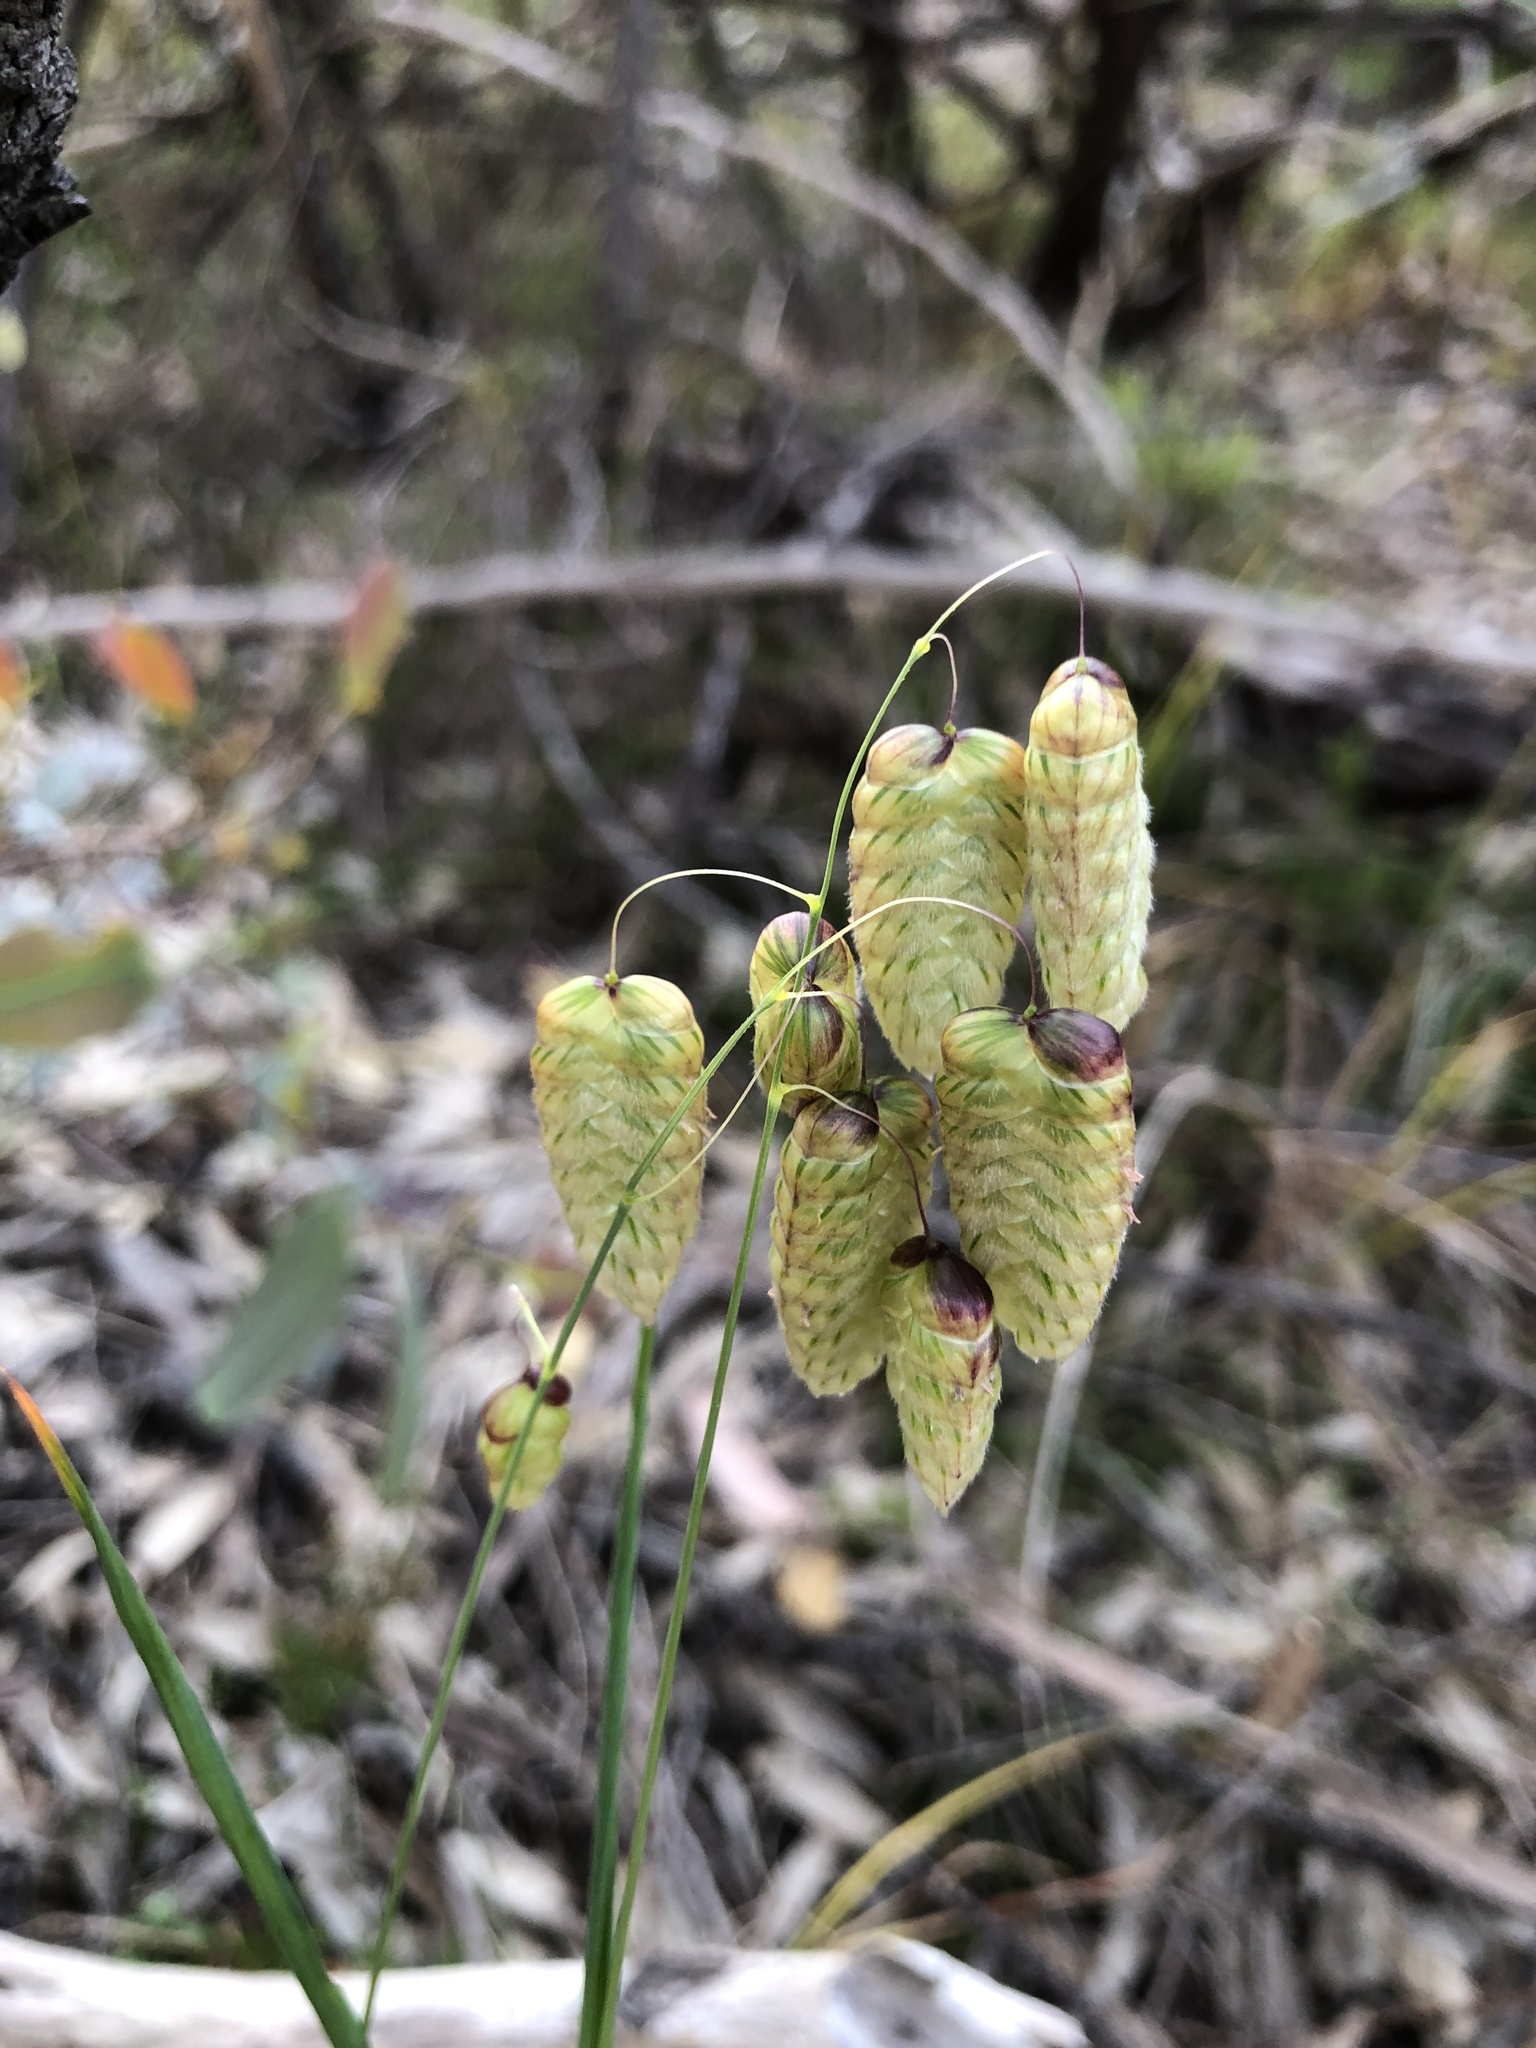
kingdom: Plantae
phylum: Tracheophyta
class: Liliopsida
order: Poales
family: Poaceae
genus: Briza
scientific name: Briza maxima
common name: Big quakinggrass
